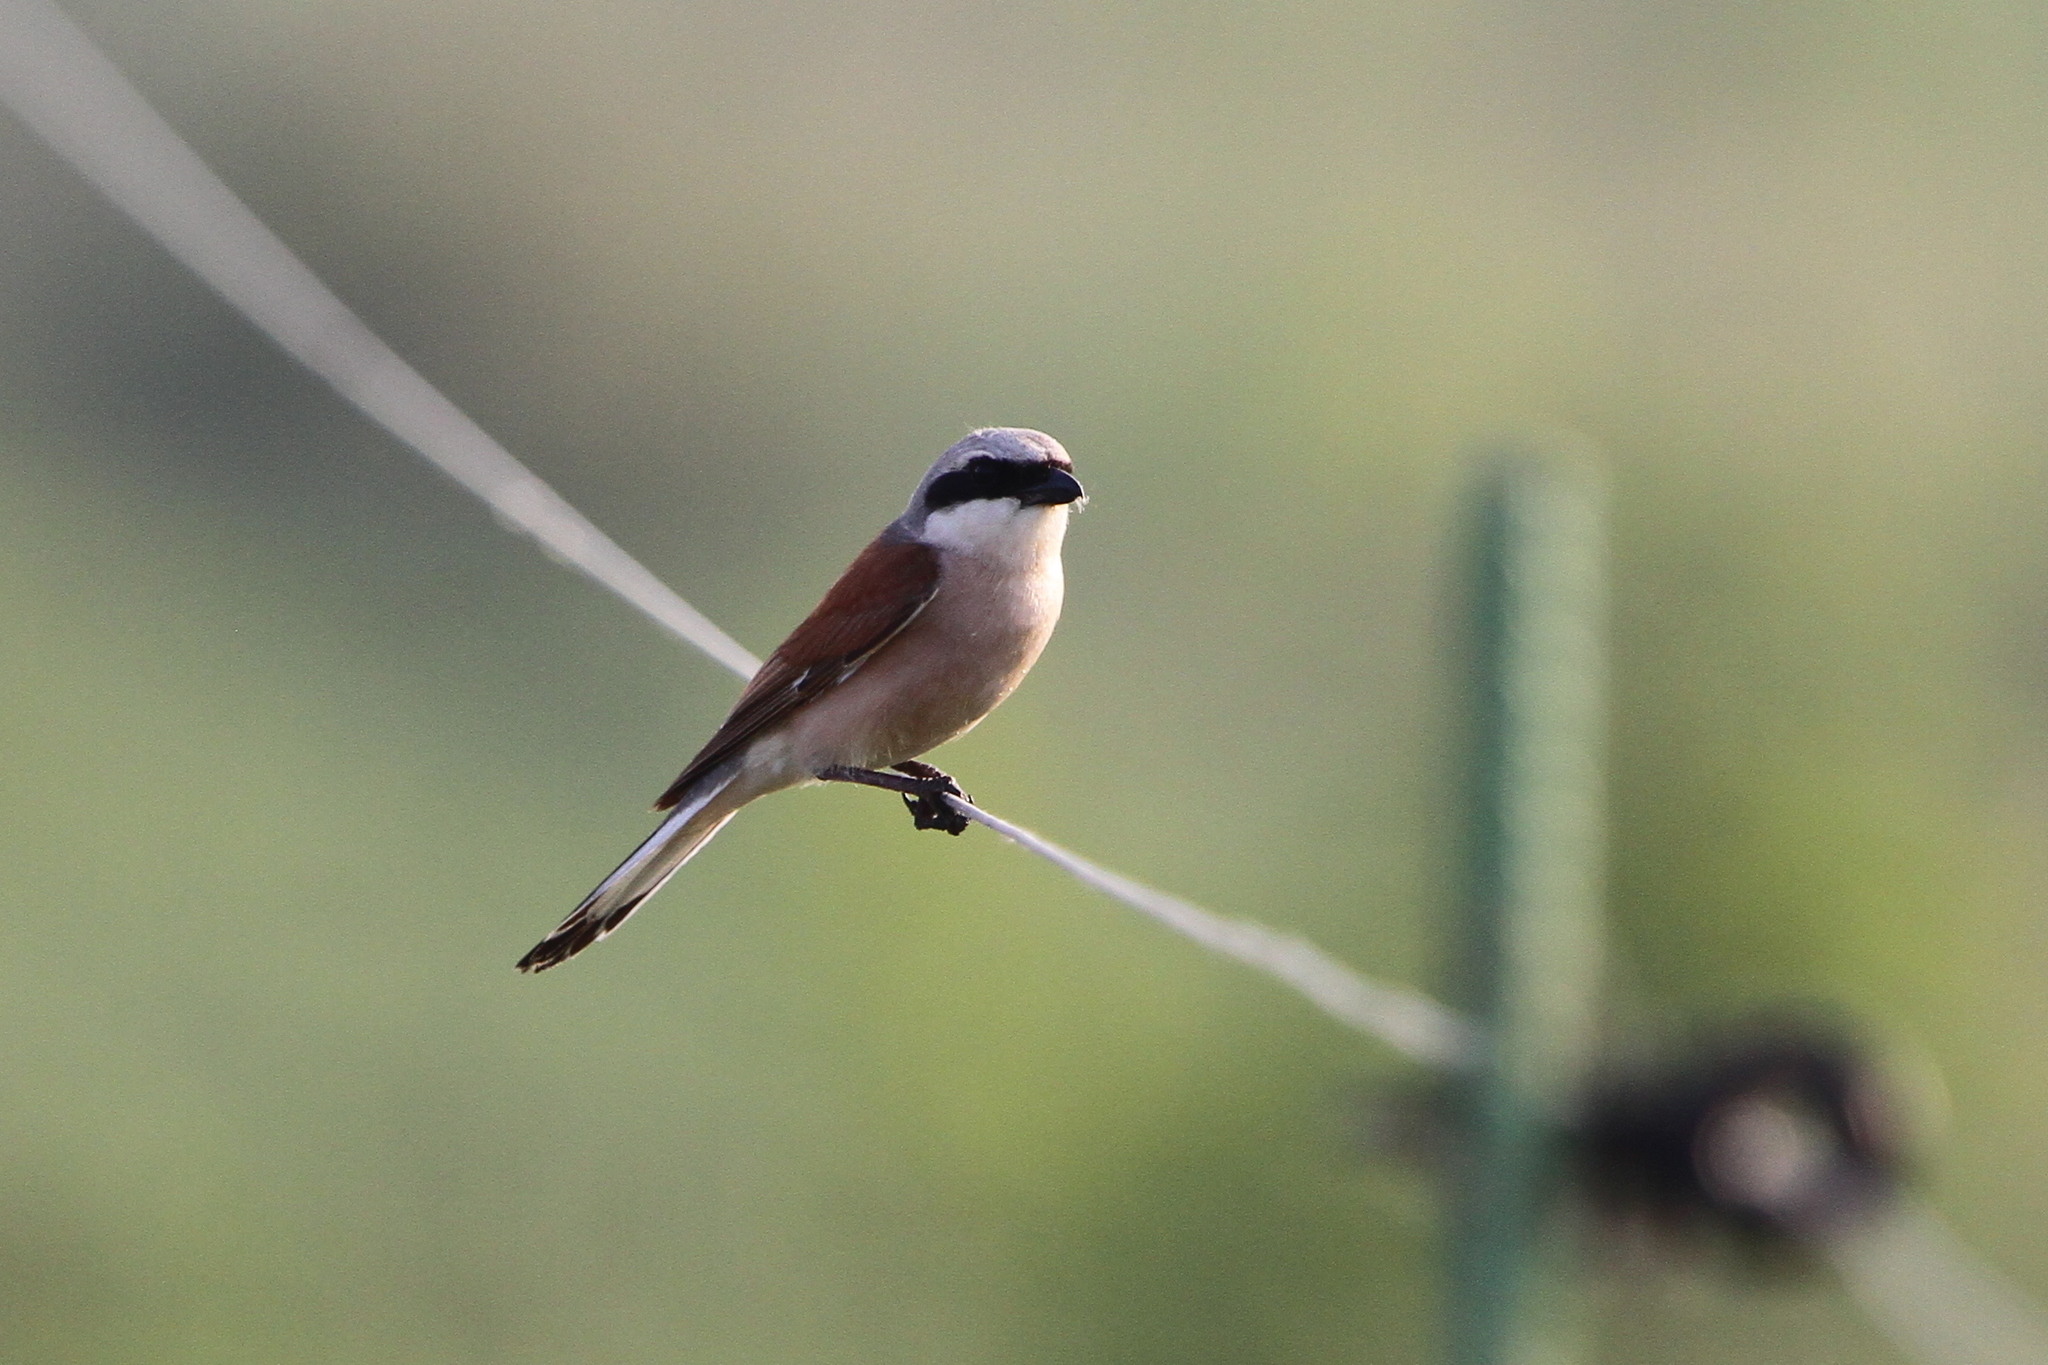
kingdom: Animalia
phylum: Chordata
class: Aves
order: Passeriformes
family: Laniidae
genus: Lanius
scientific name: Lanius collurio
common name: Red-backed shrike
